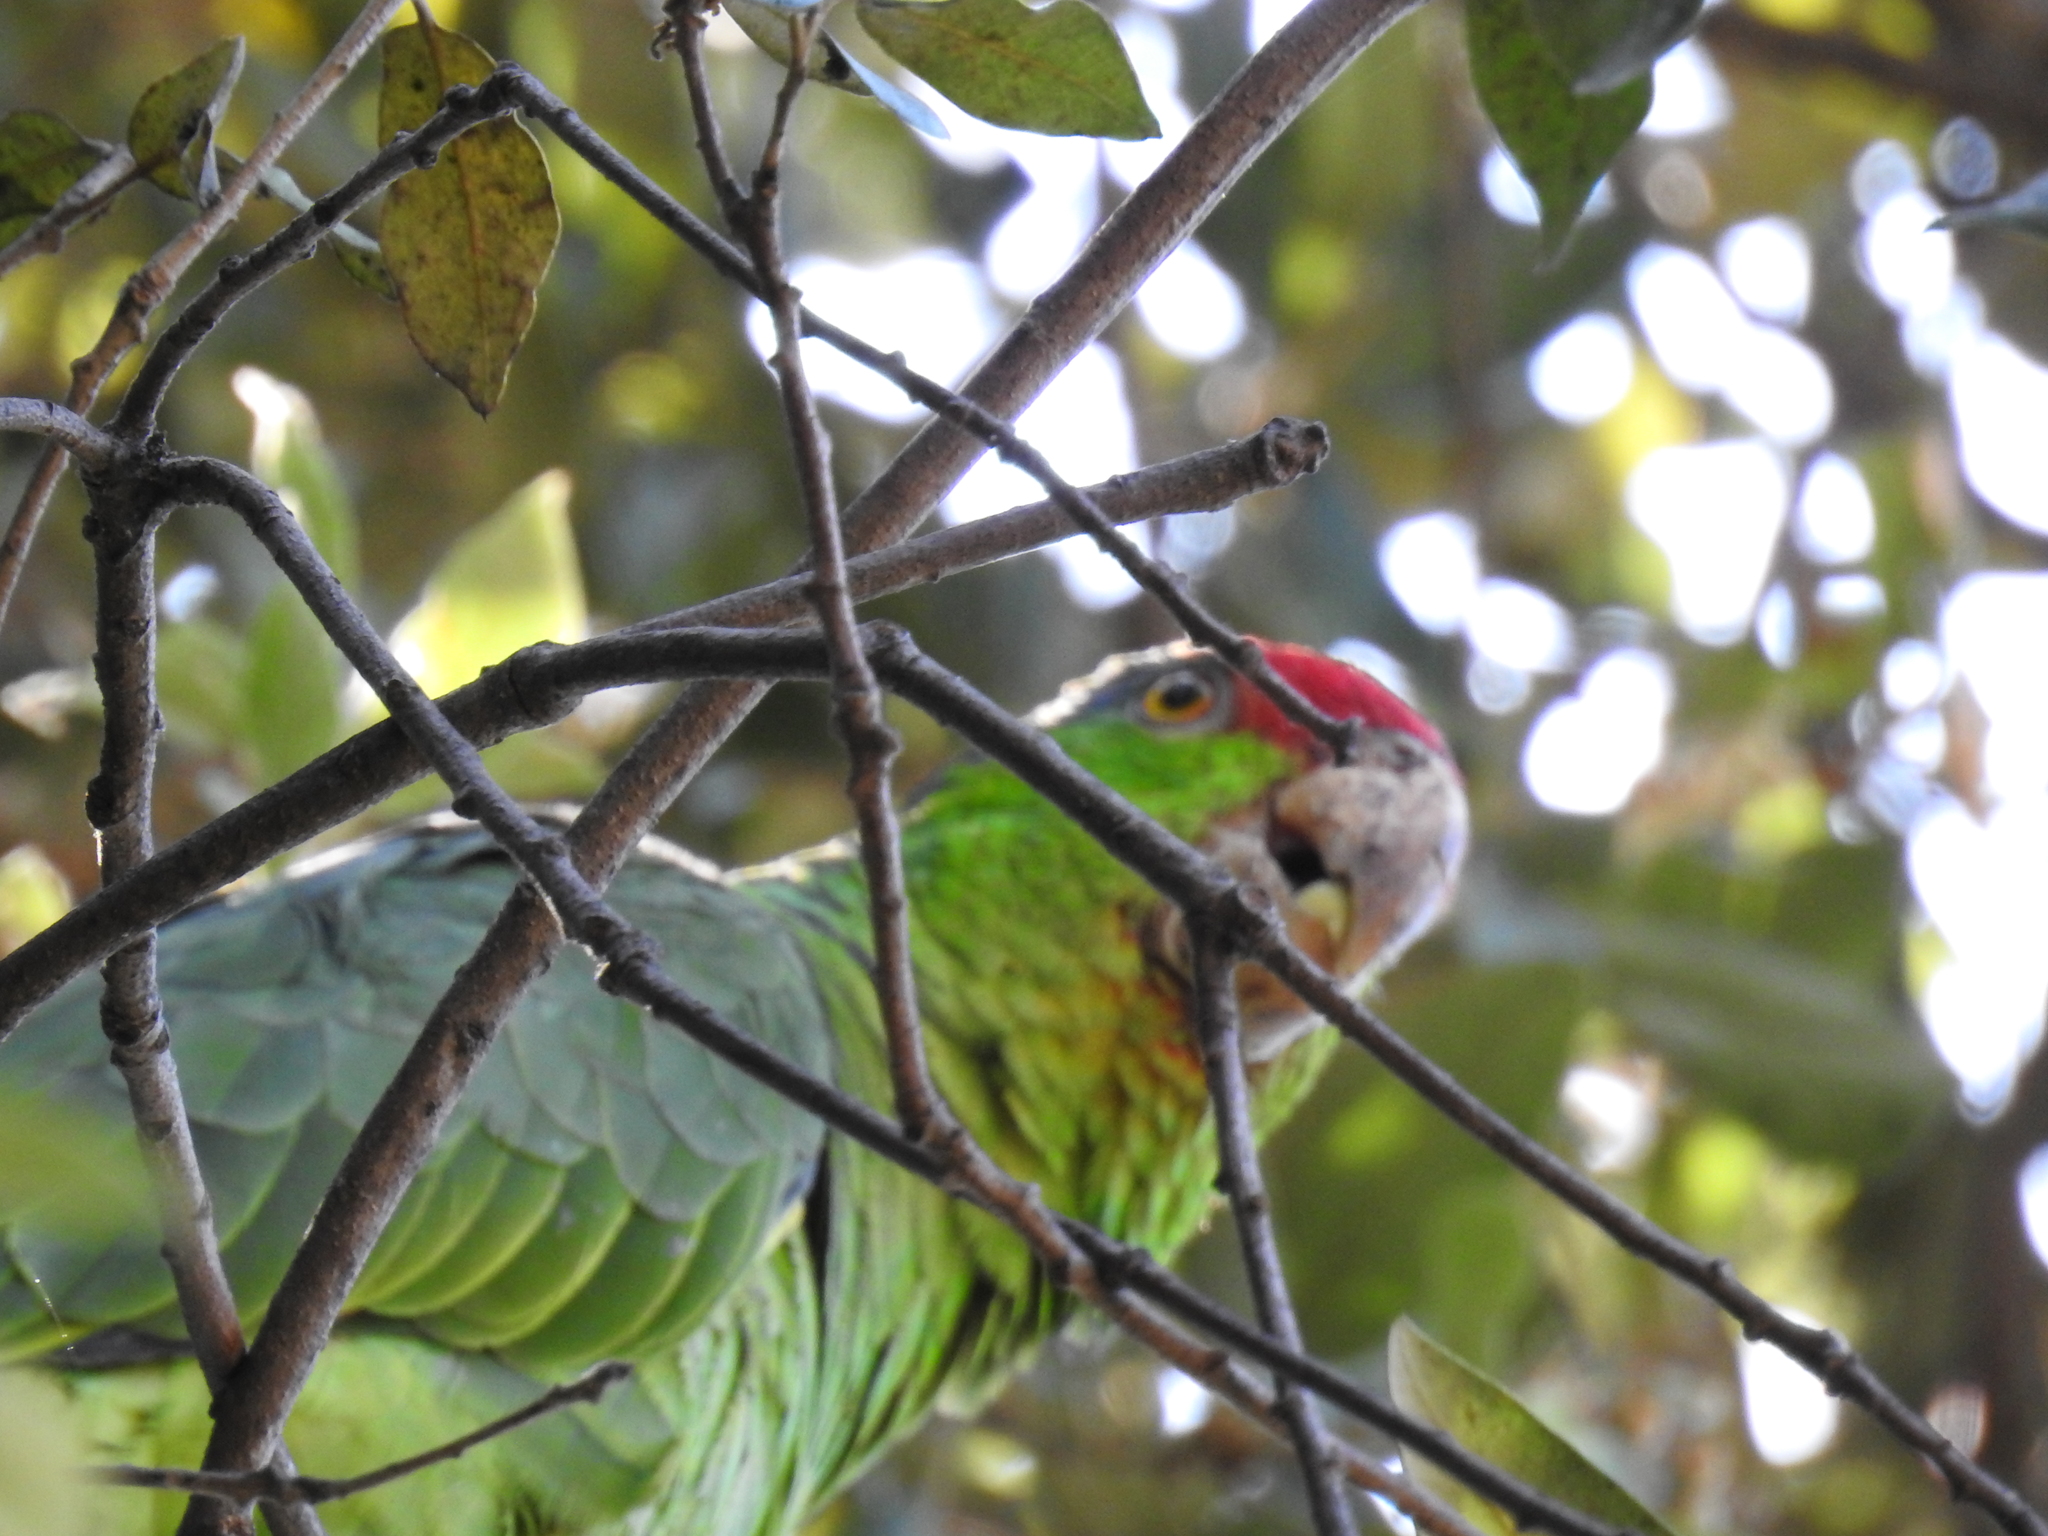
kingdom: Animalia
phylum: Chordata
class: Aves
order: Psittaciformes
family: Psittacidae
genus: Amazona
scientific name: Amazona viridigenalis
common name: Red-crowned amazon
